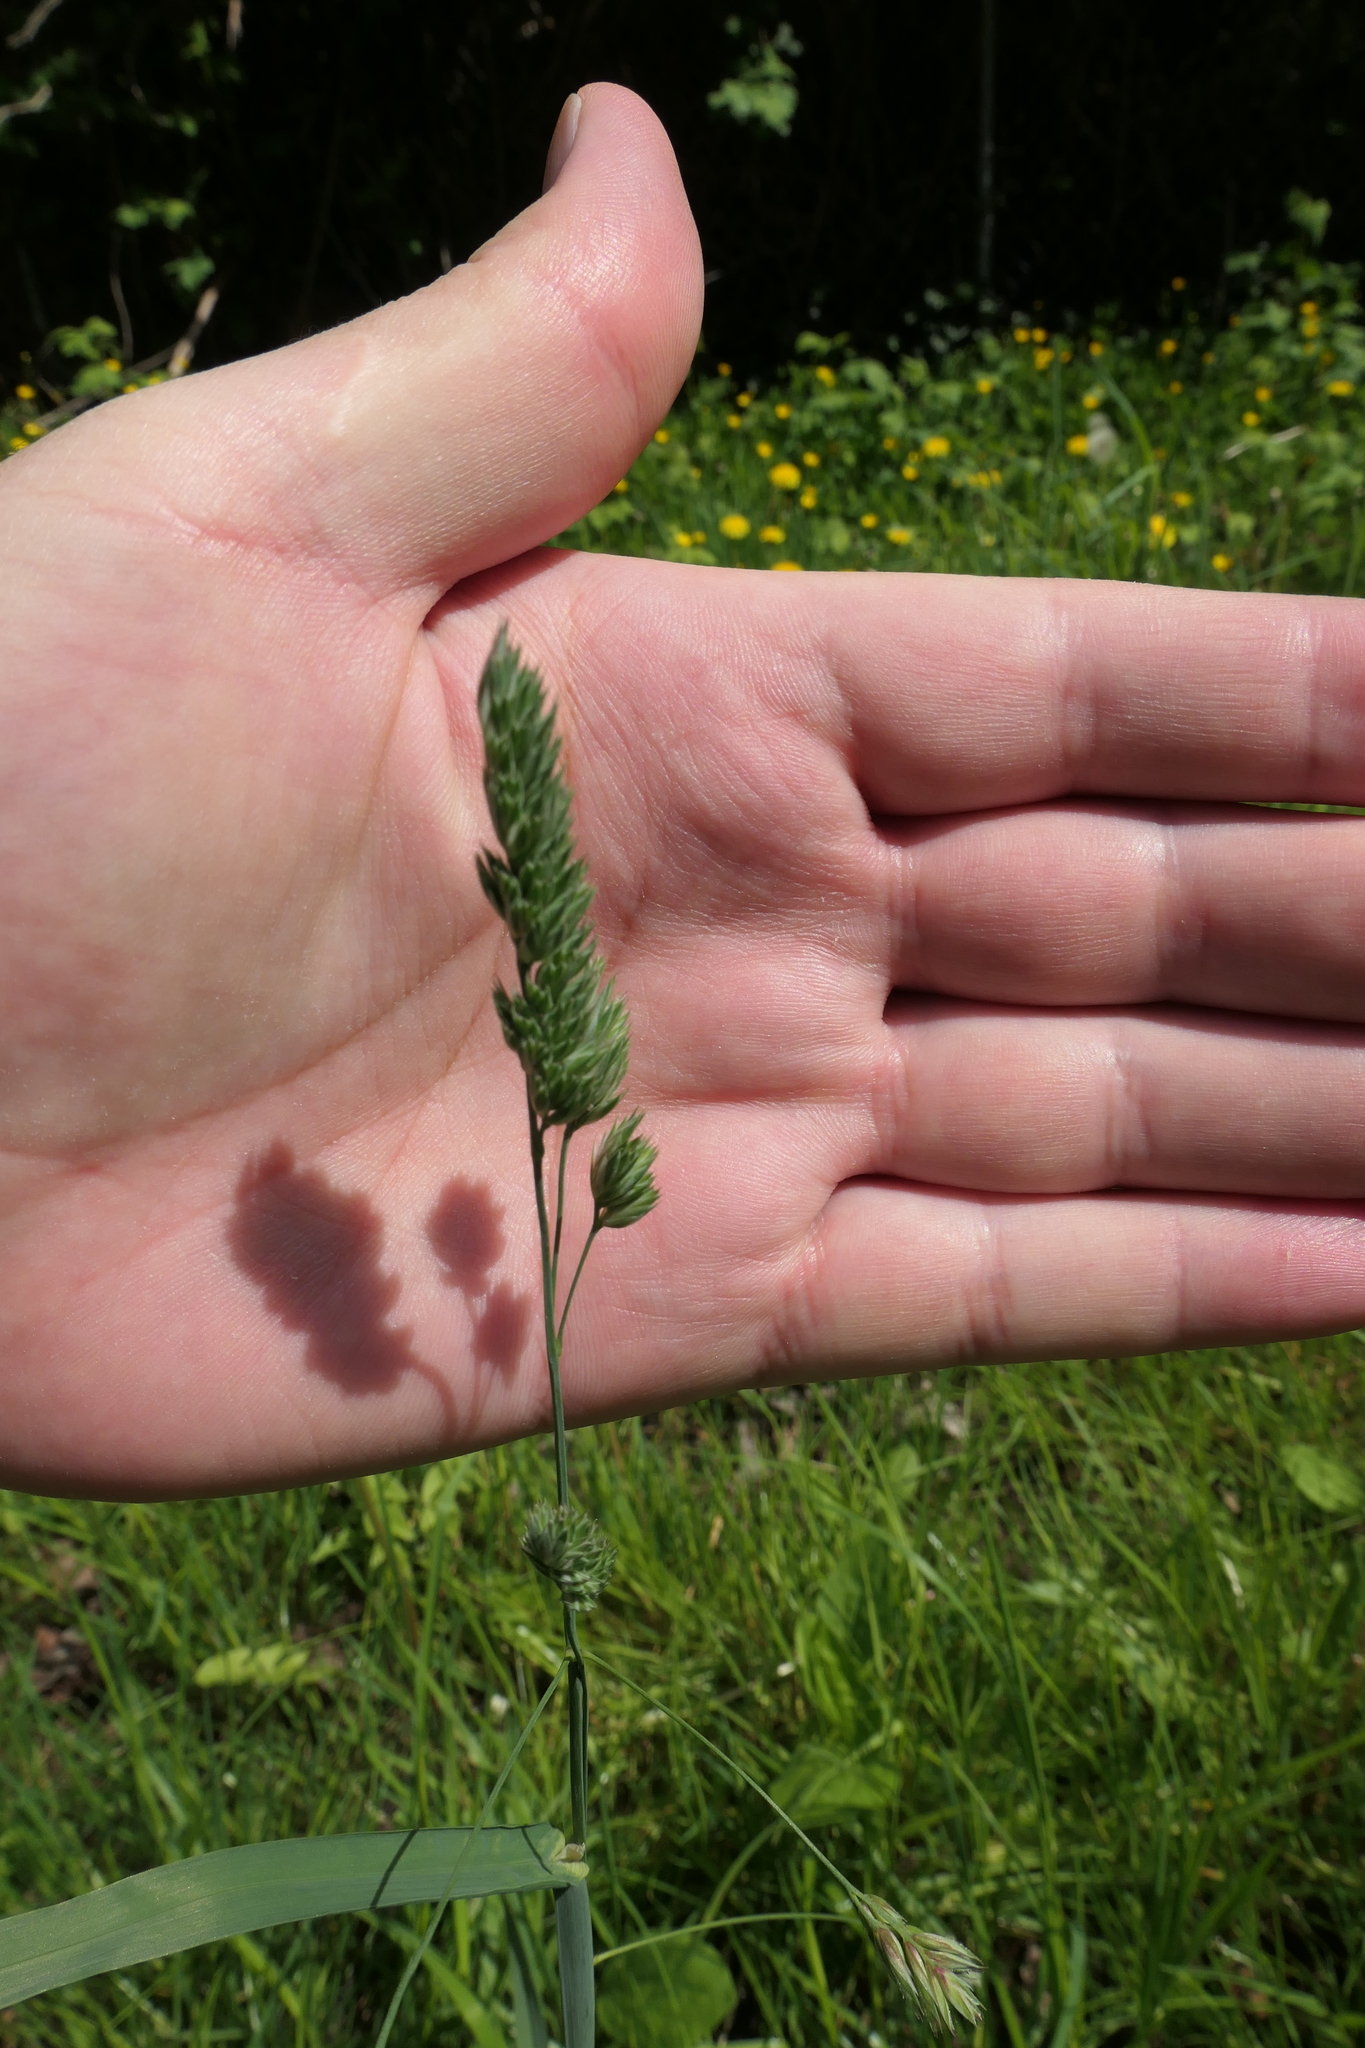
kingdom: Plantae
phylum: Tracheophyta
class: Liliopsida
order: Poales
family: Poaceae
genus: Dactylis
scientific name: Dactylis glomerata
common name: Orchardgrass
